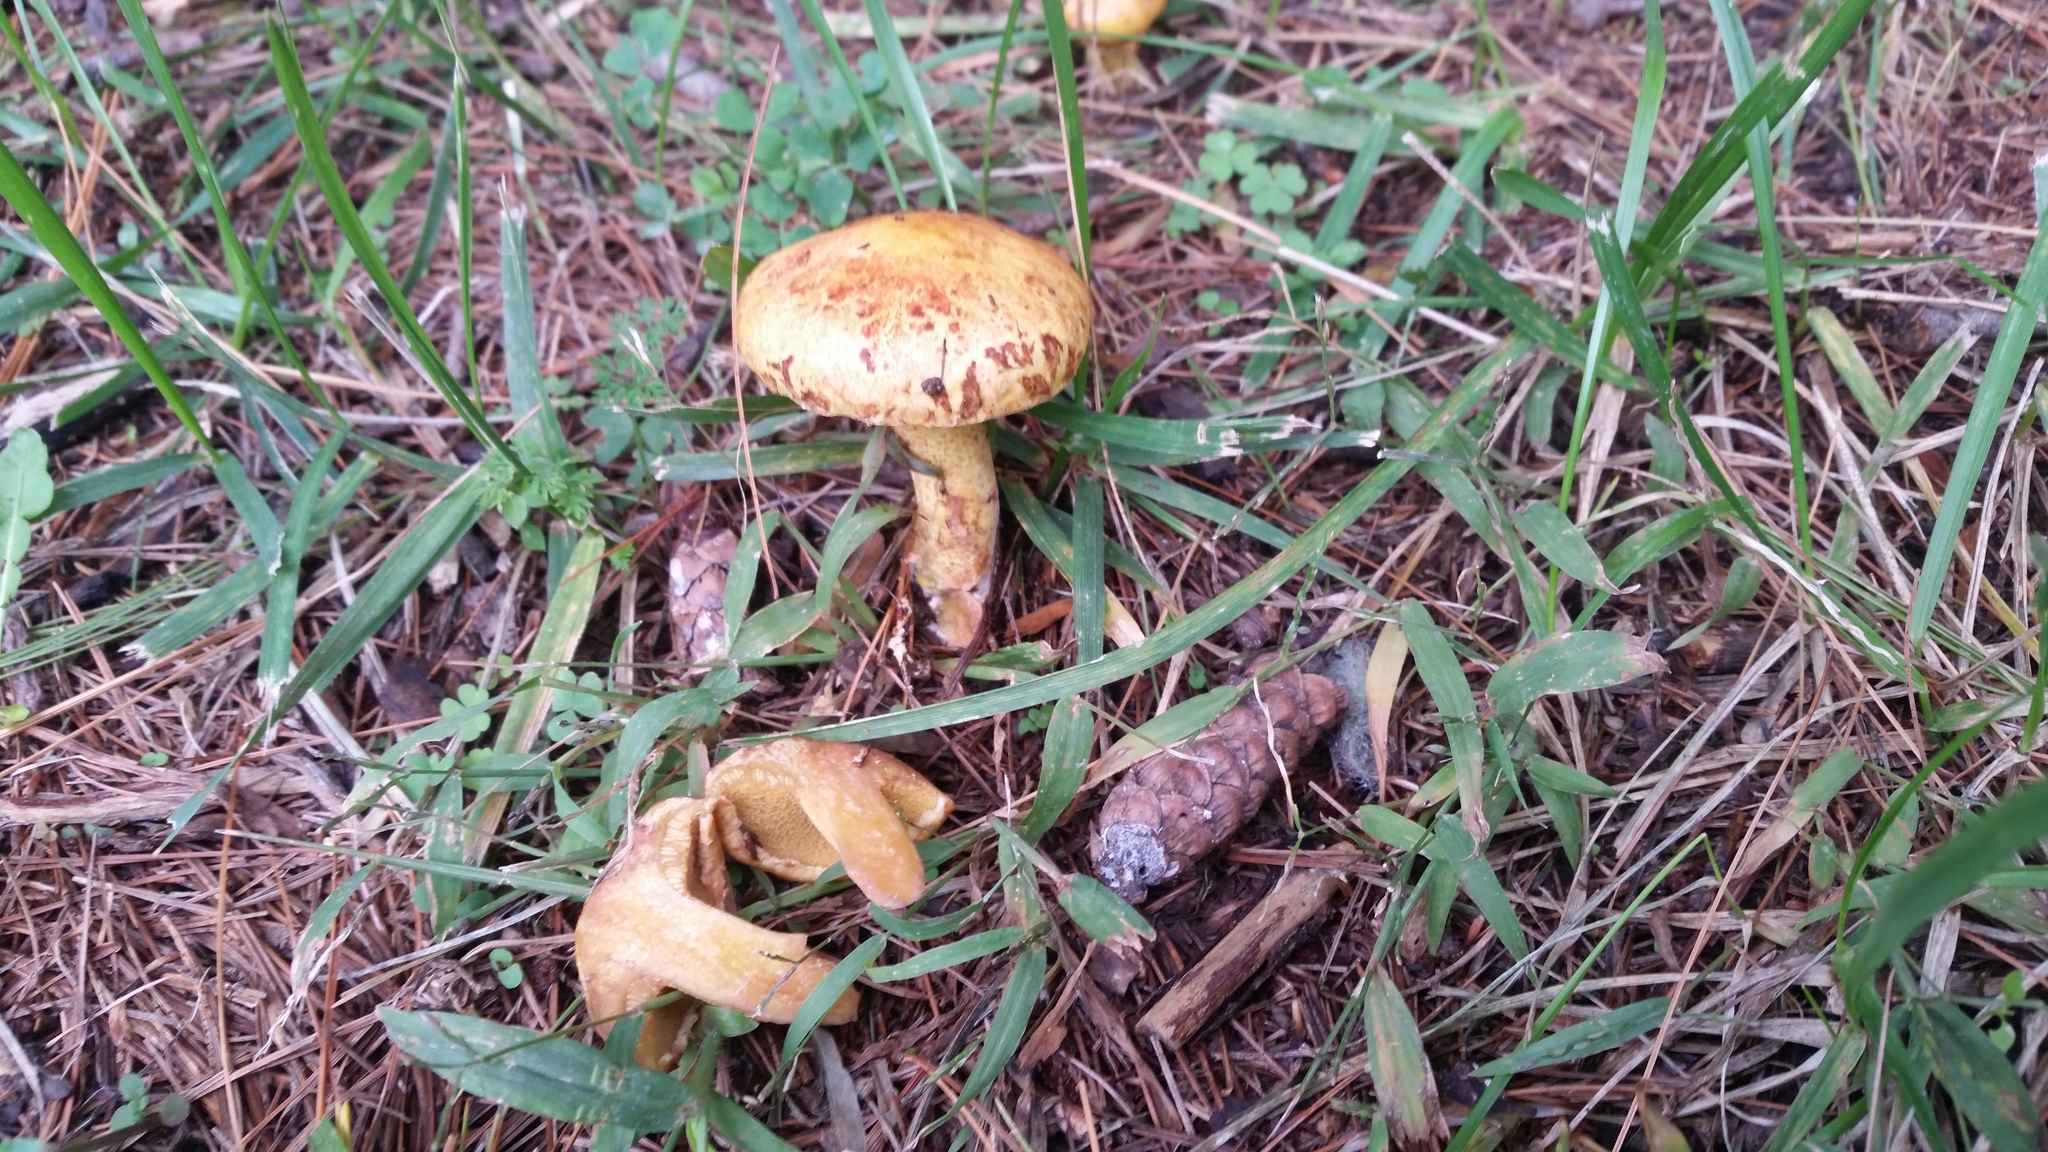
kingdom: Fungi
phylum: Basidiomycota
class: Agaricomycetes
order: Boletales
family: Suillaceae
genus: Suillus
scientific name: Suillus americanus
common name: Chicken fat mushroom
